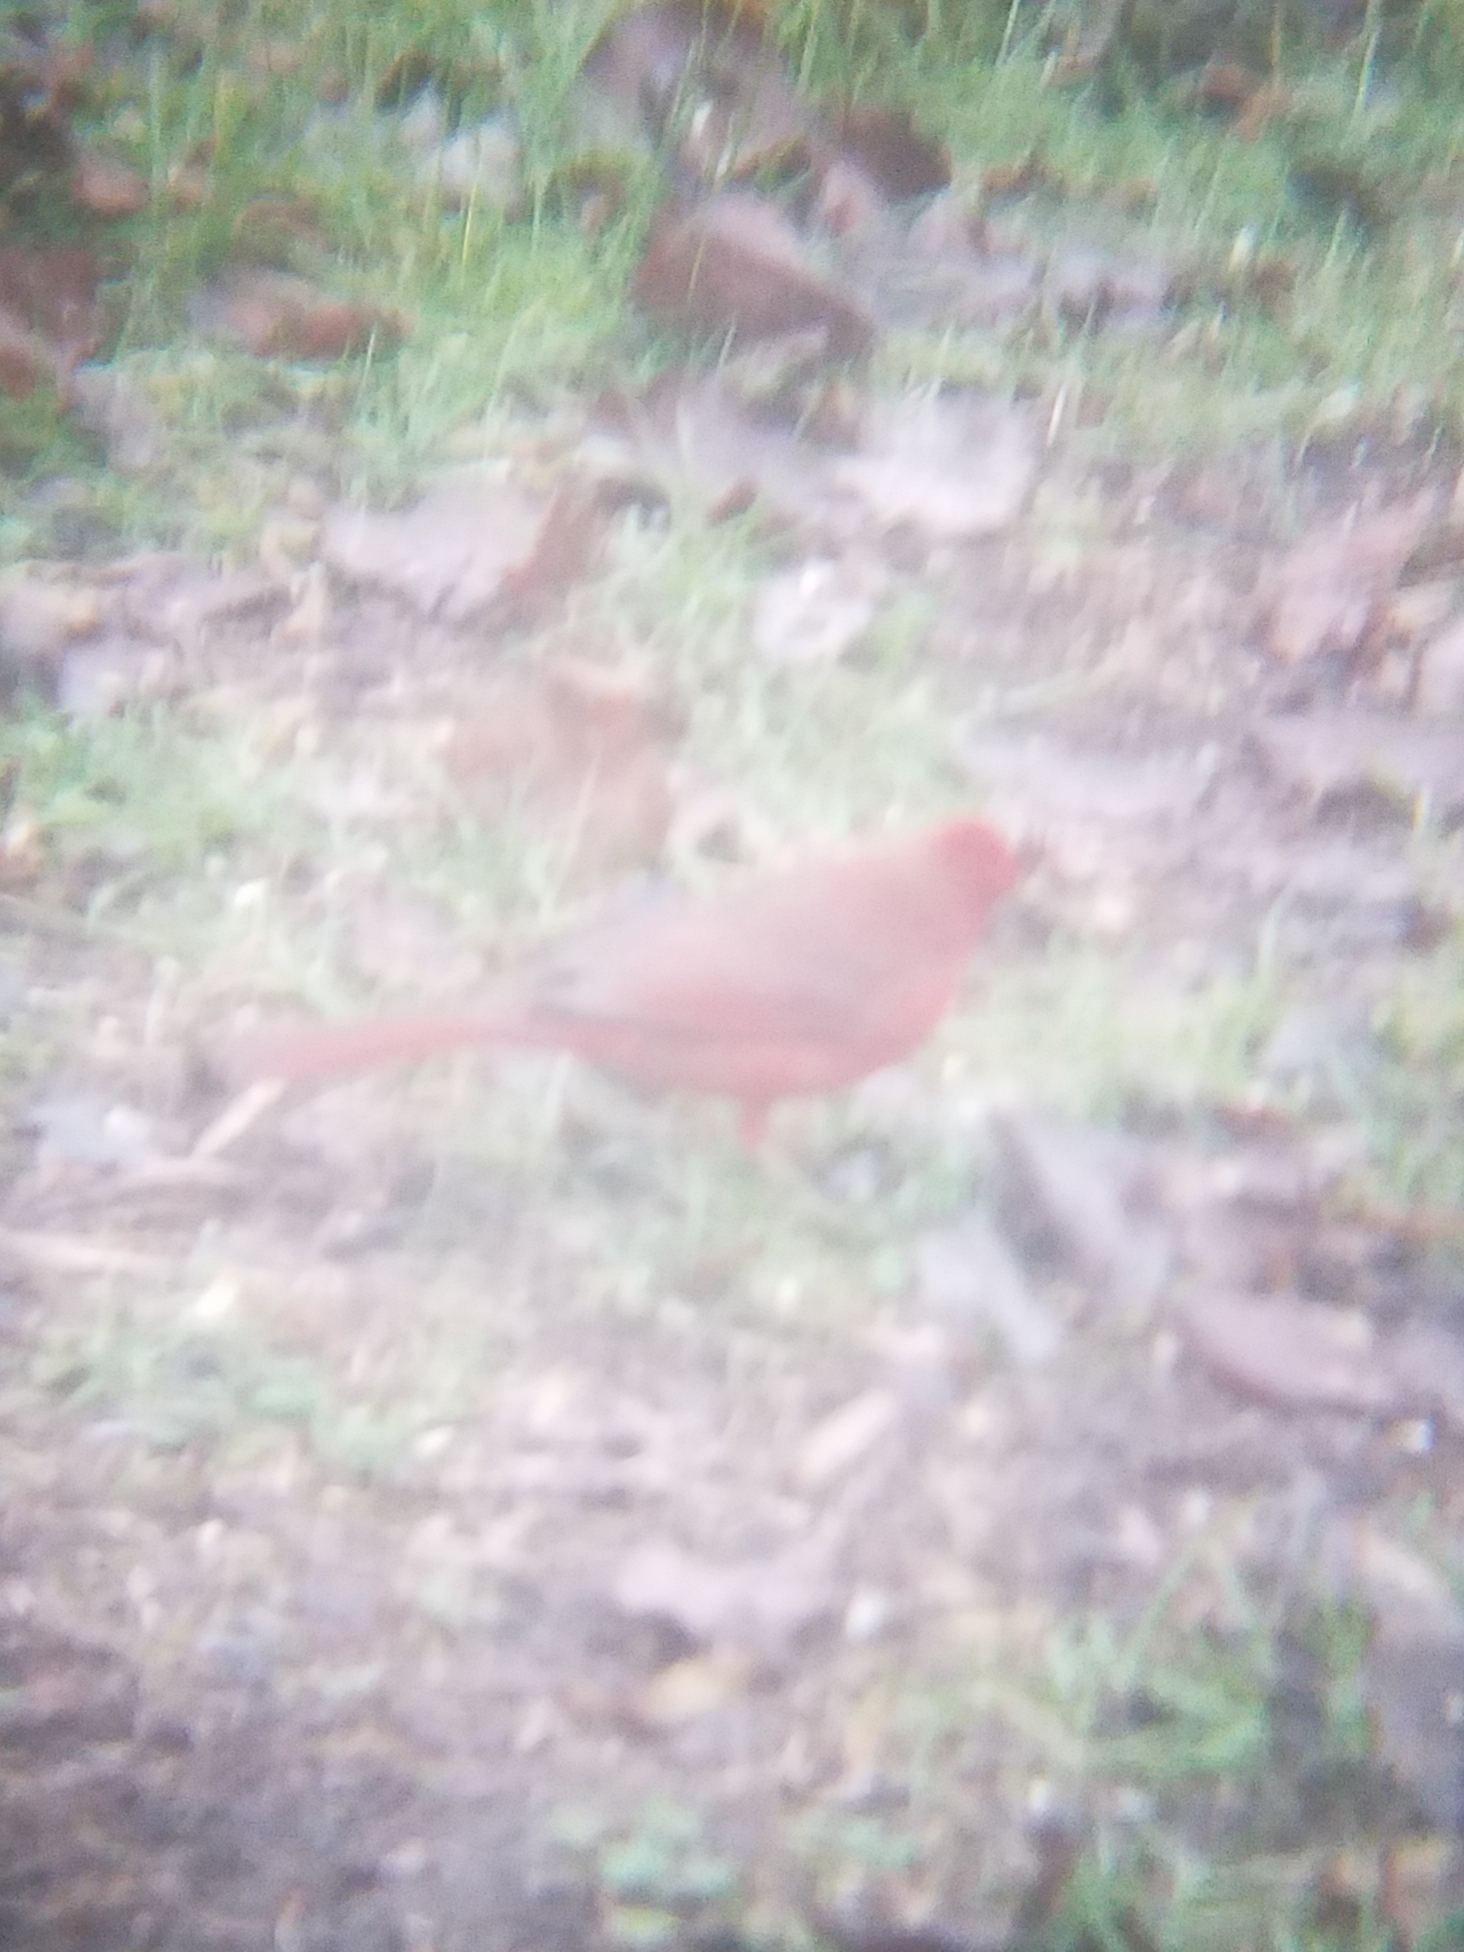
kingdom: Animalia
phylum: Chordata
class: Aves
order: Passeriformes
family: Cardinalidae
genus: Cardinalis
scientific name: Cardinalis cardinalis
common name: Northern cardinal
